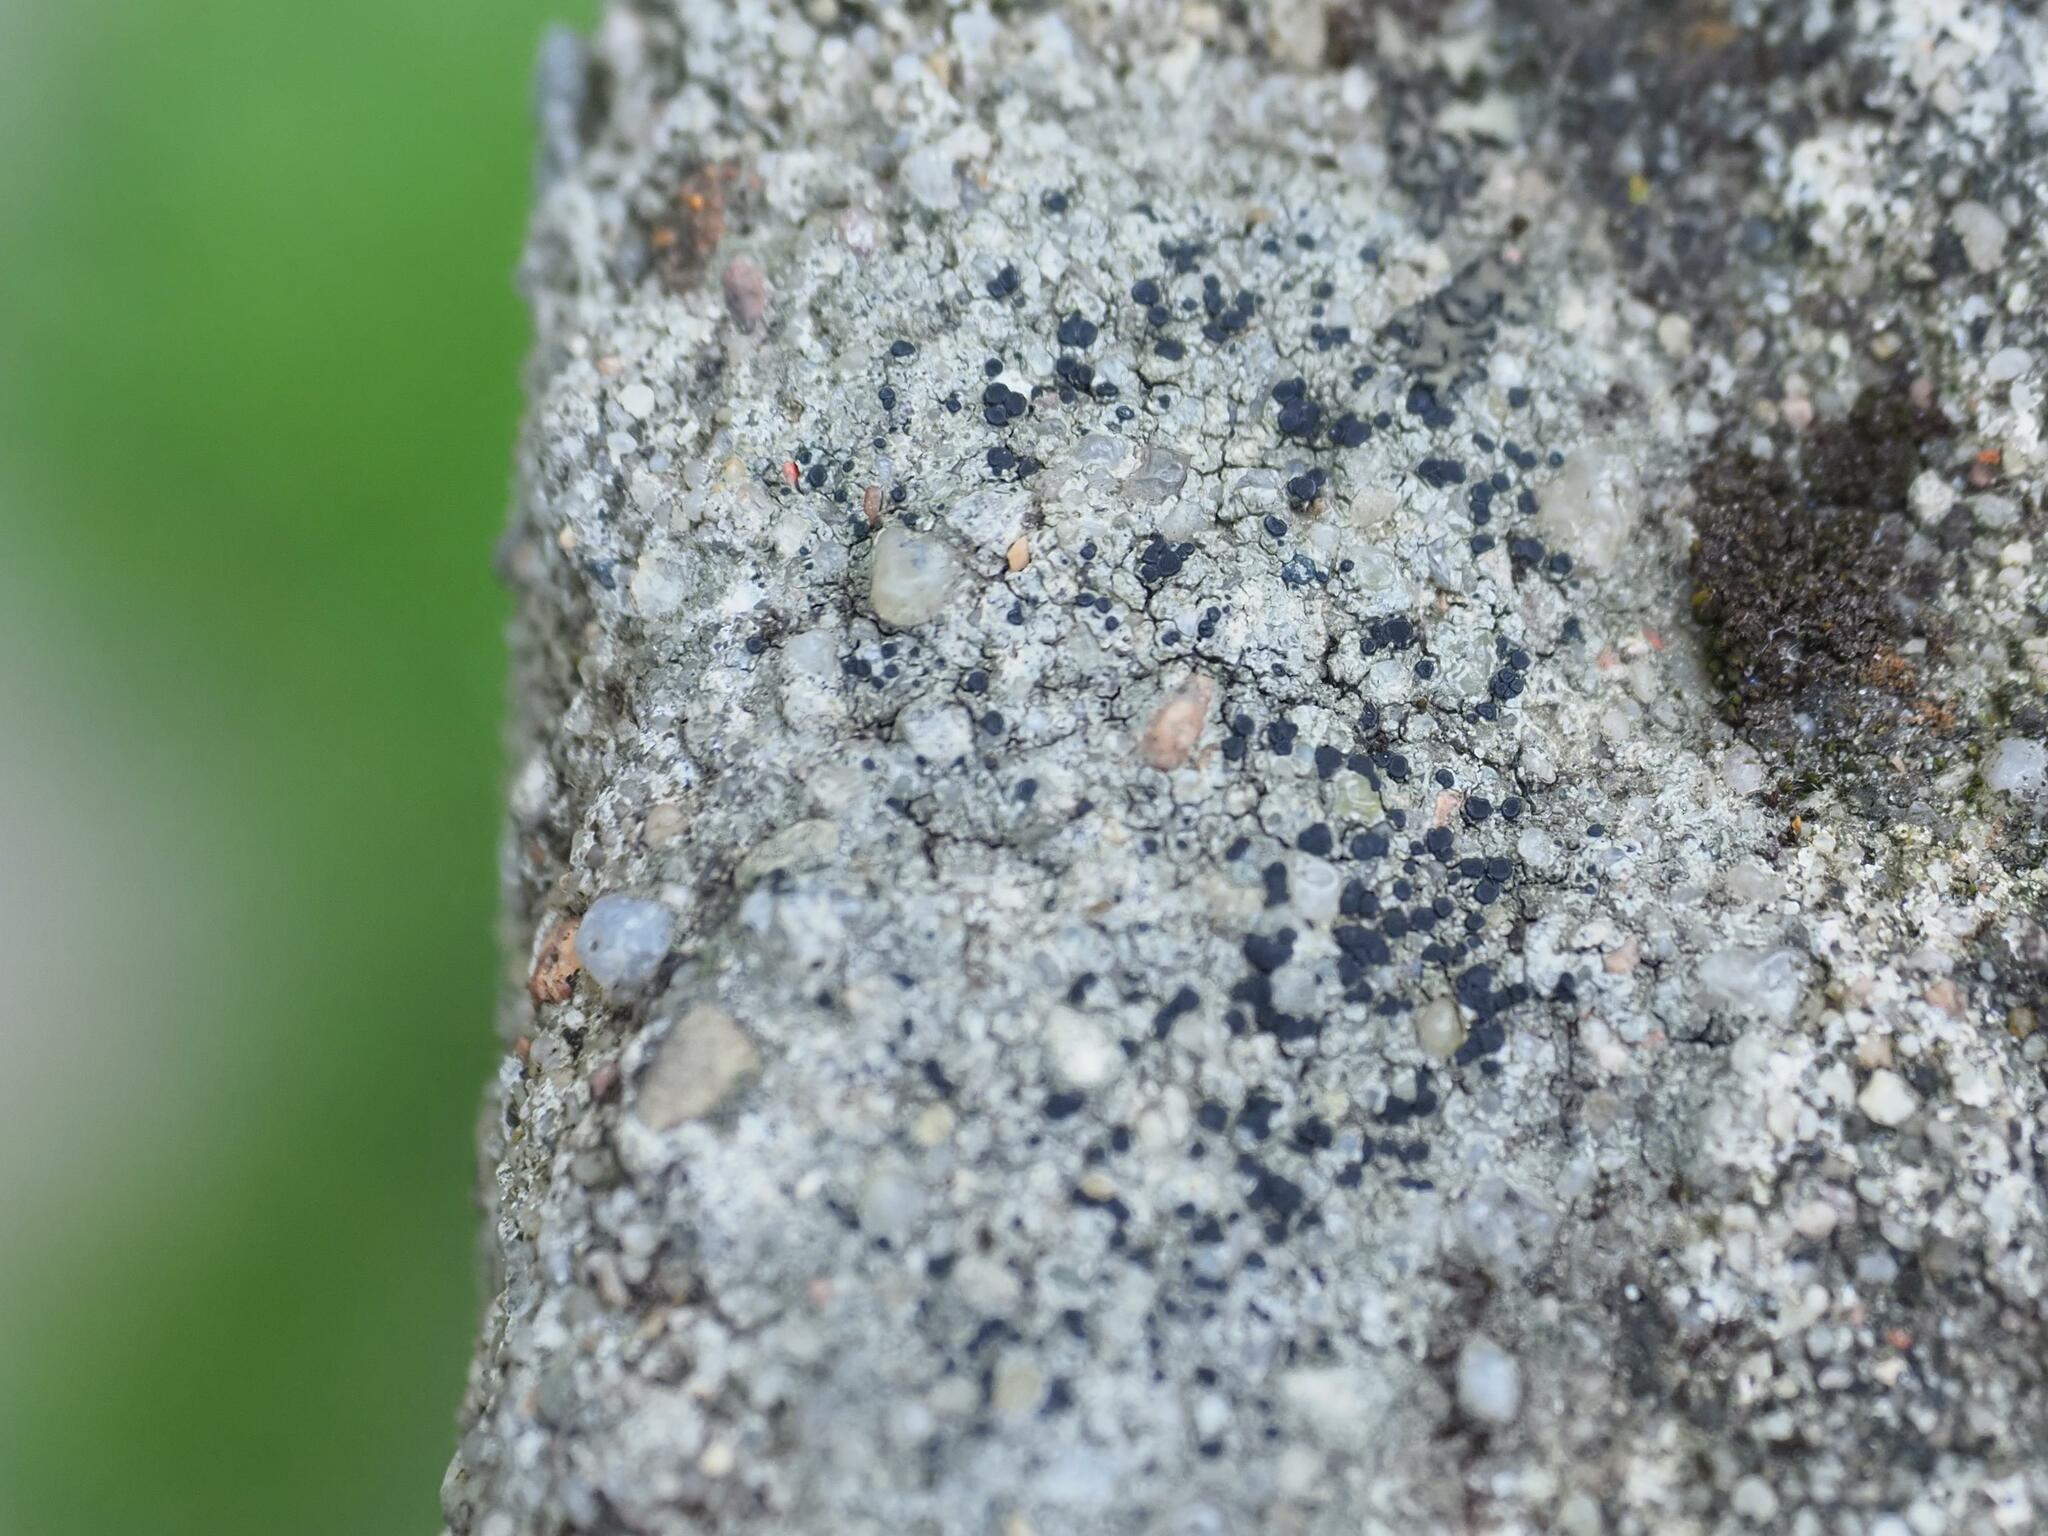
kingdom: Fungi
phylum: Ascomycota
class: Lecanoromycetes
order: Lecanorales
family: Lecanoraceae
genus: Lecidella
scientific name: Lecidella stigmatea
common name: Limestone disc lichen
